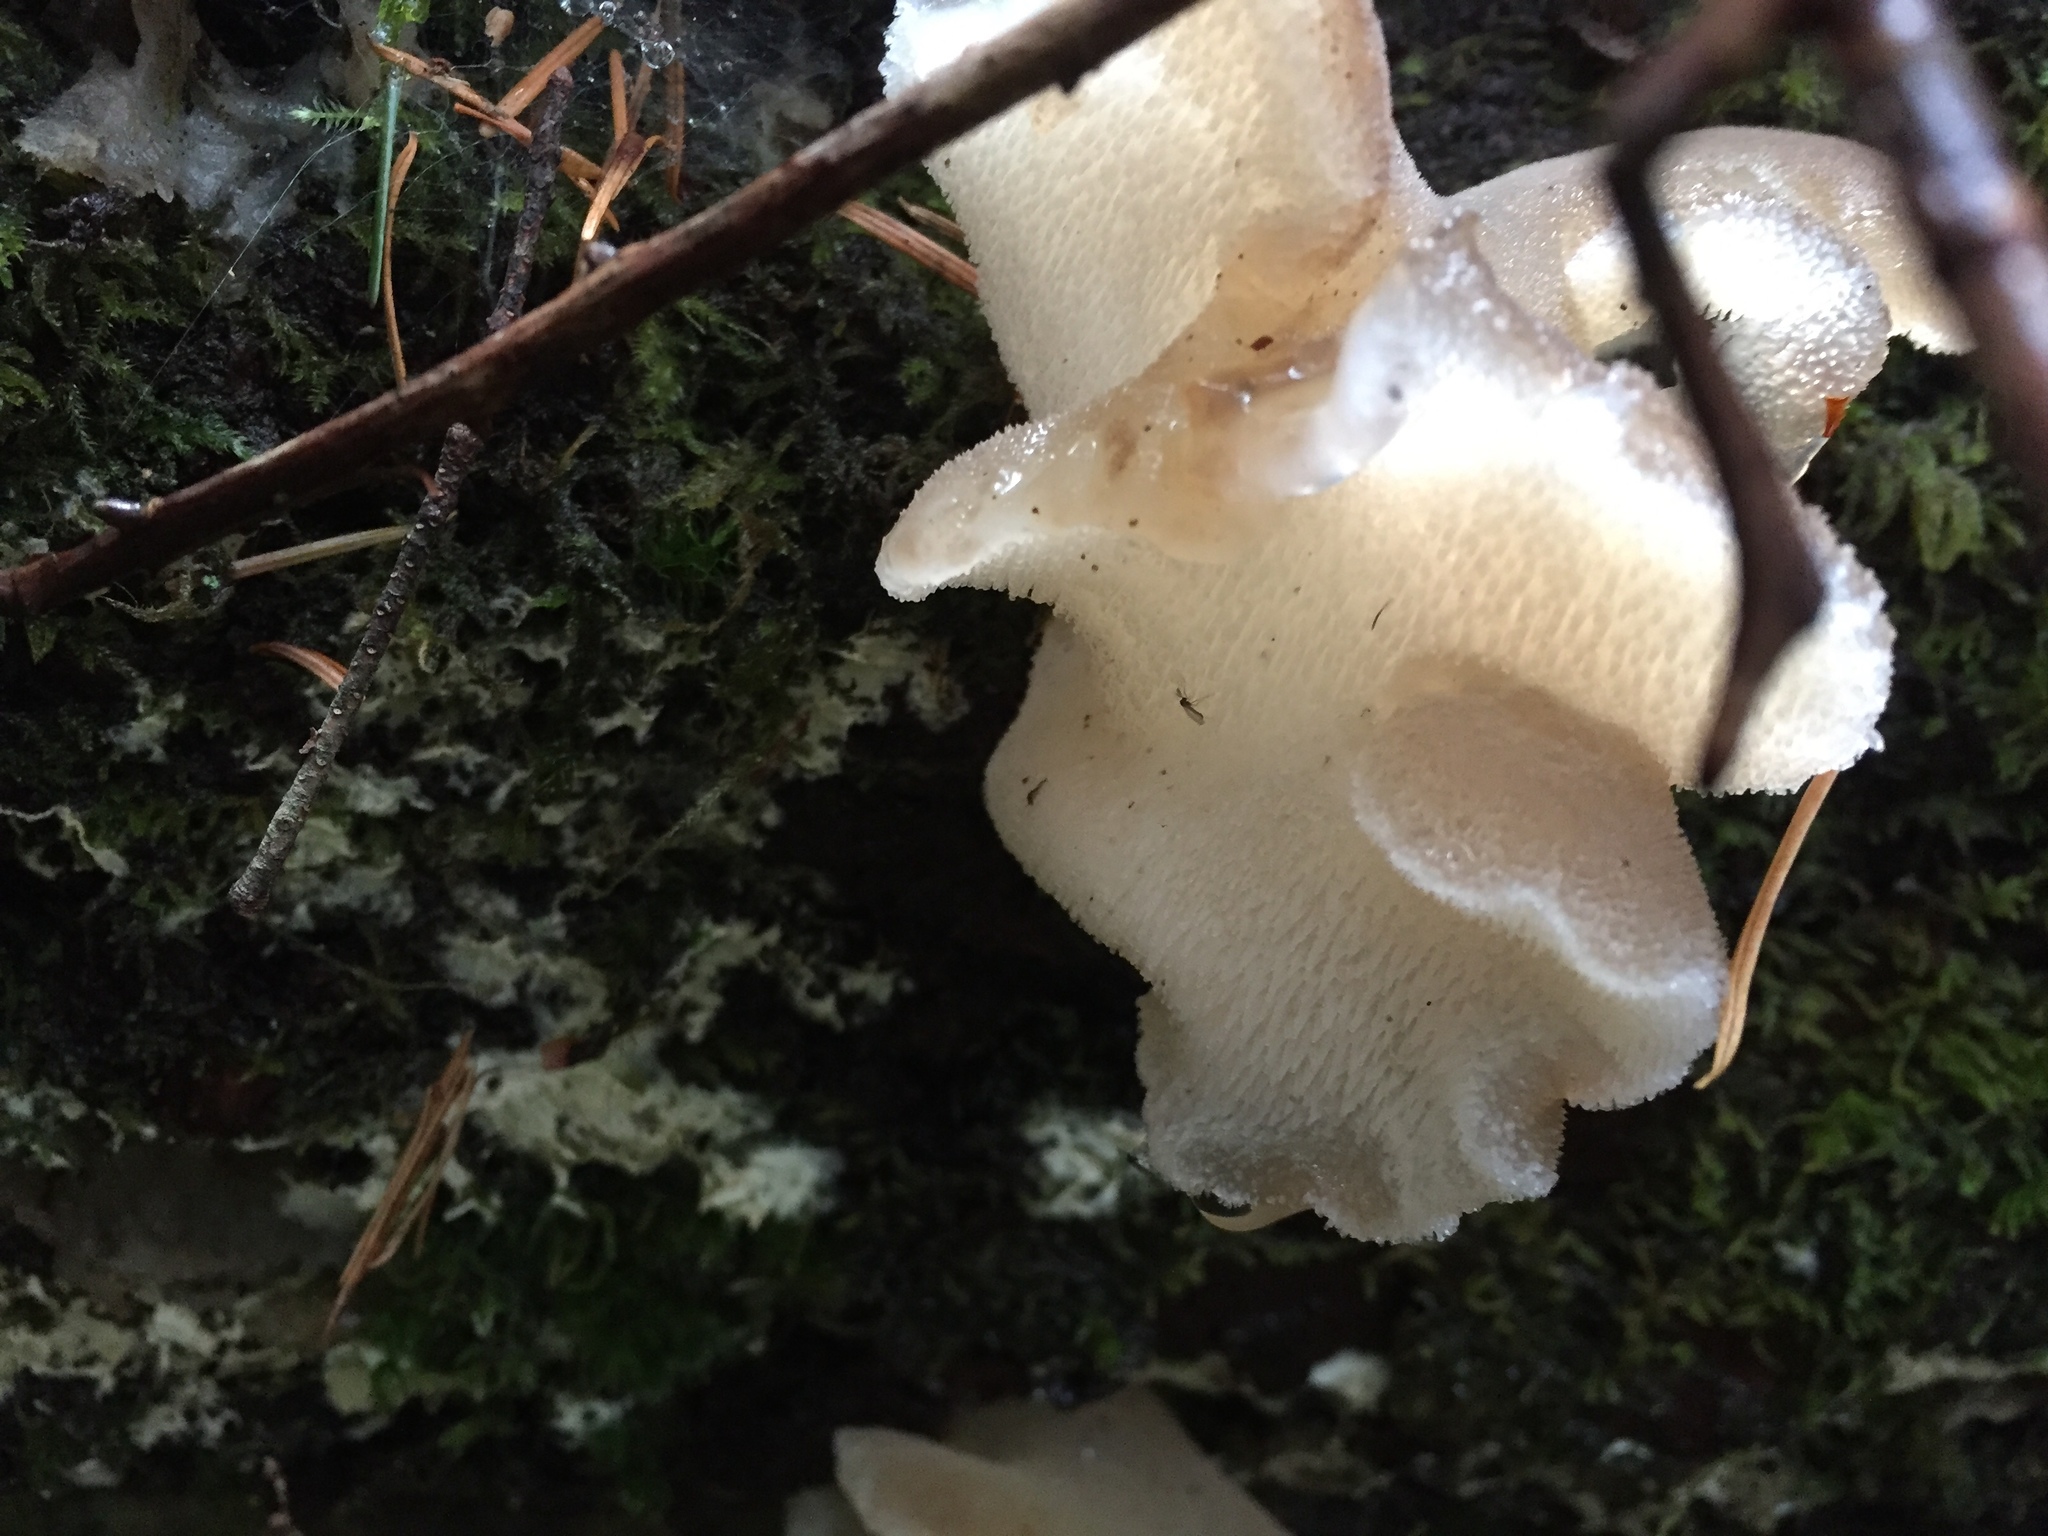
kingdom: Fungi
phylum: Basidiomycota
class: Agaricomycetes
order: Auriculariales
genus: Pseudohydnum
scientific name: Pseudohydnum gelatinosum
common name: Jelly tongue
